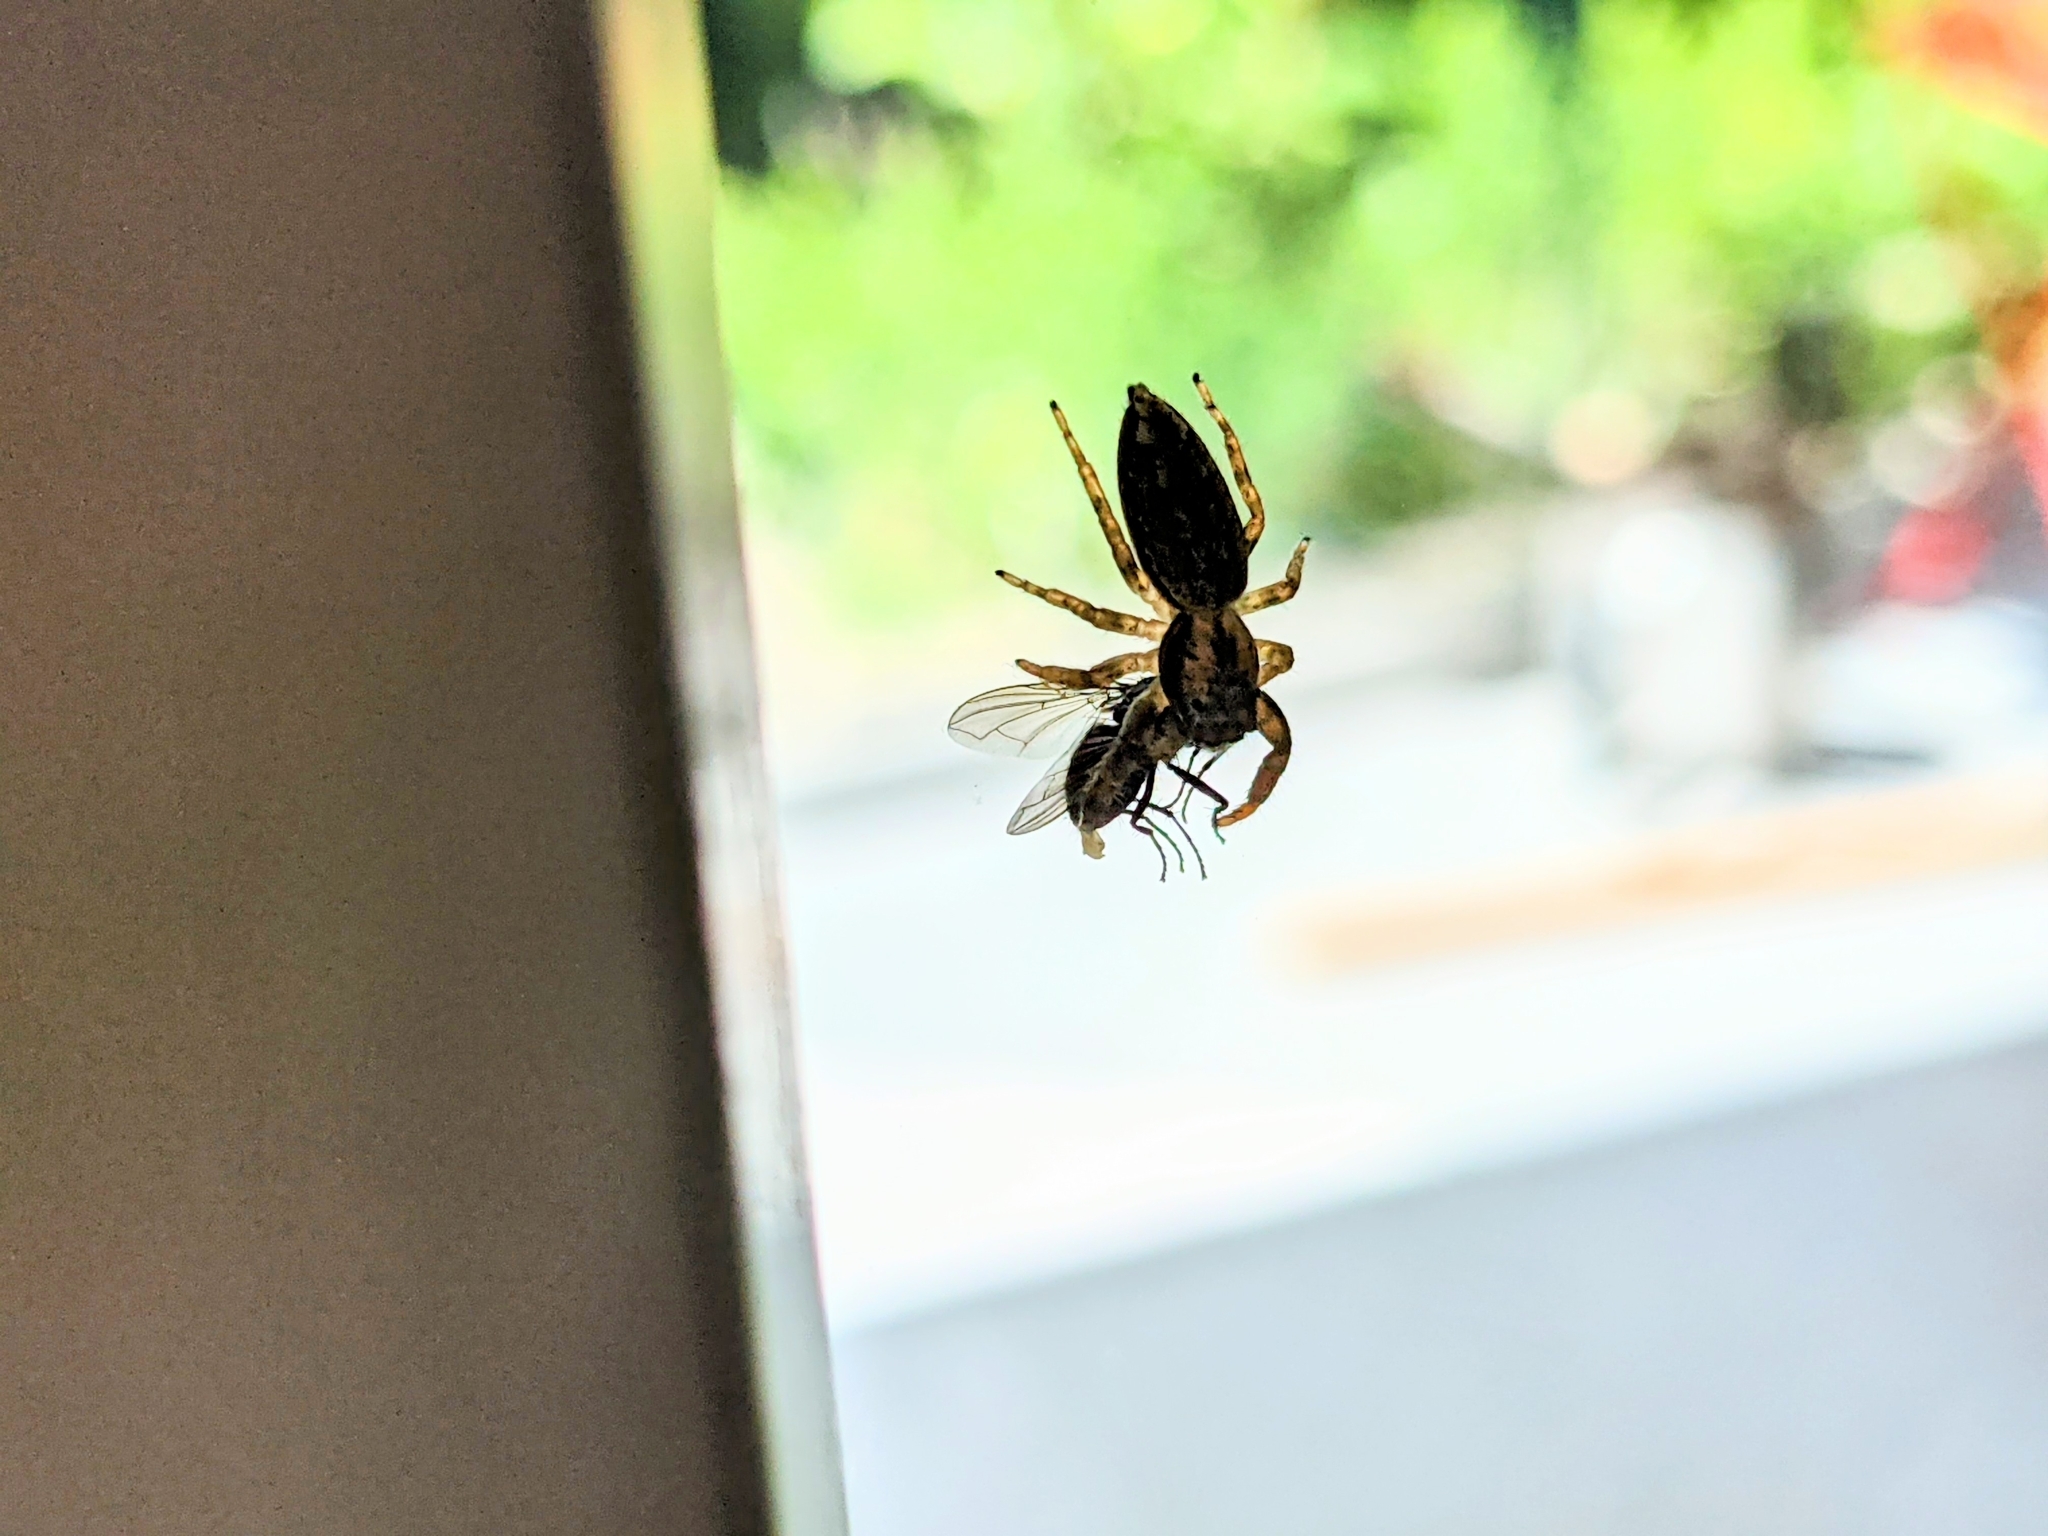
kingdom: Animalia
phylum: Arthropoda
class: Arachnida
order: Araneae
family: Salticidae
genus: Marpissa
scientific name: Marpissa muscosa
